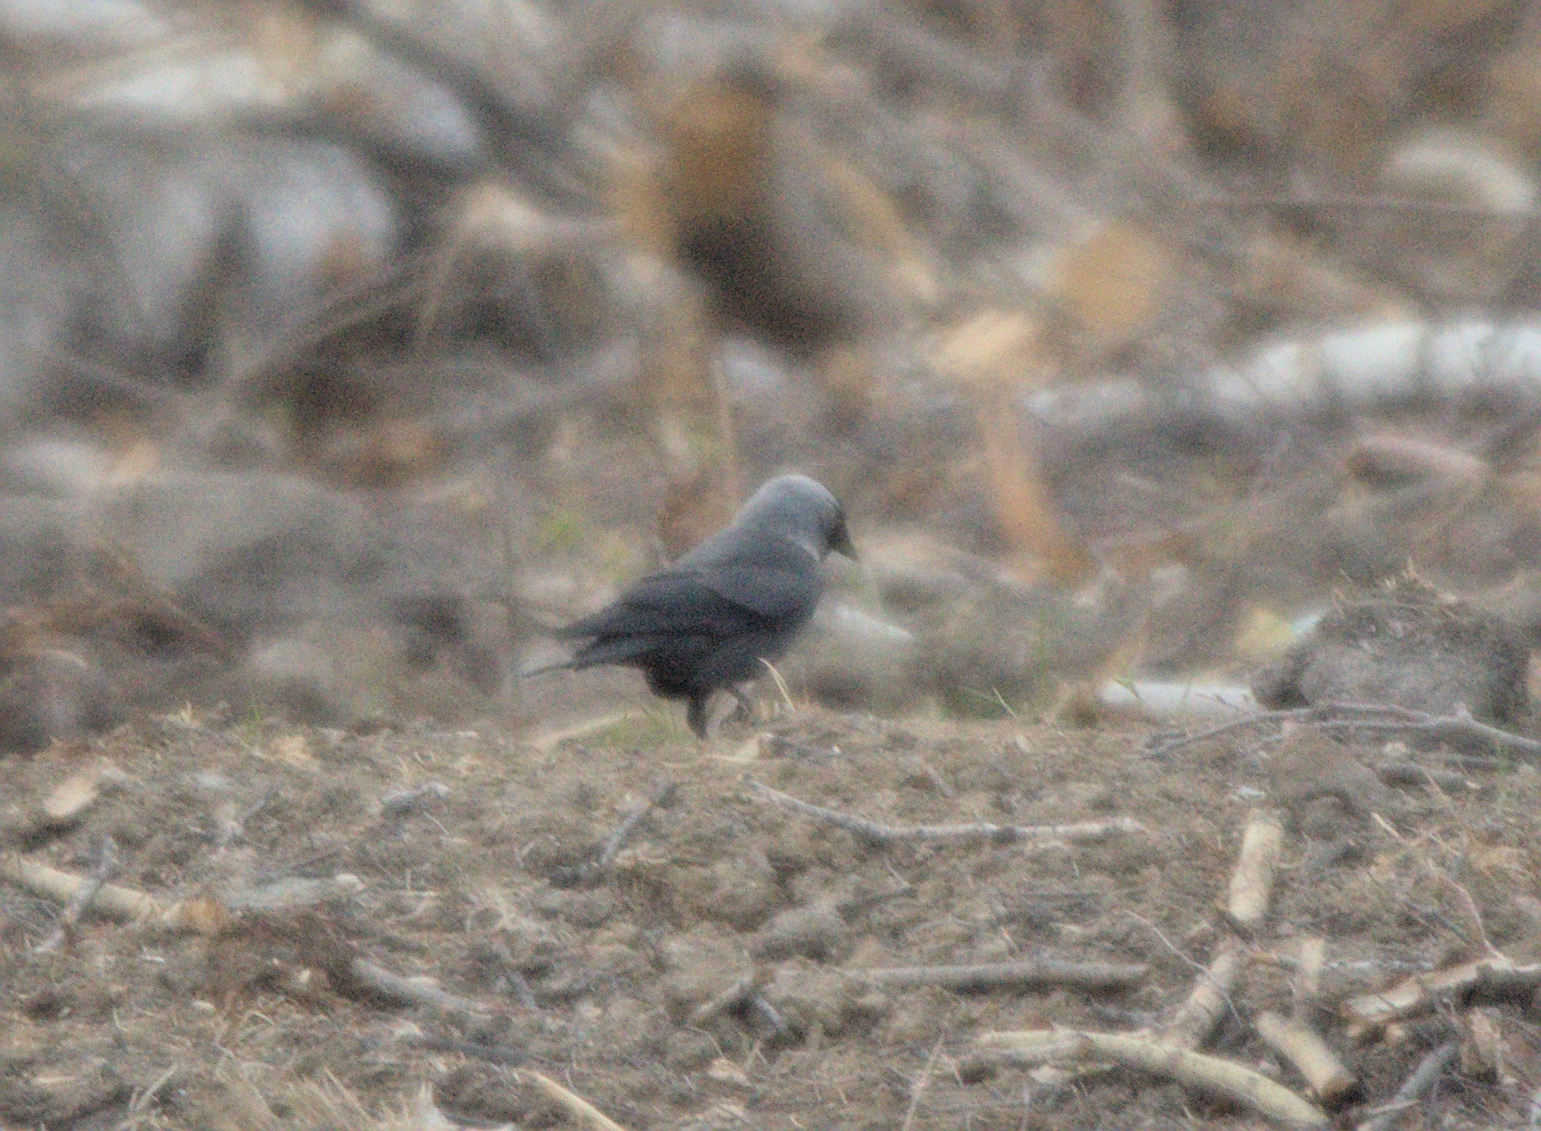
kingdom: Animalia
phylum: Chordata
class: Aves
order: Passeriformes
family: Corvidae
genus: Coloeus
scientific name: Coloeus monedula
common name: Western jackdaw
